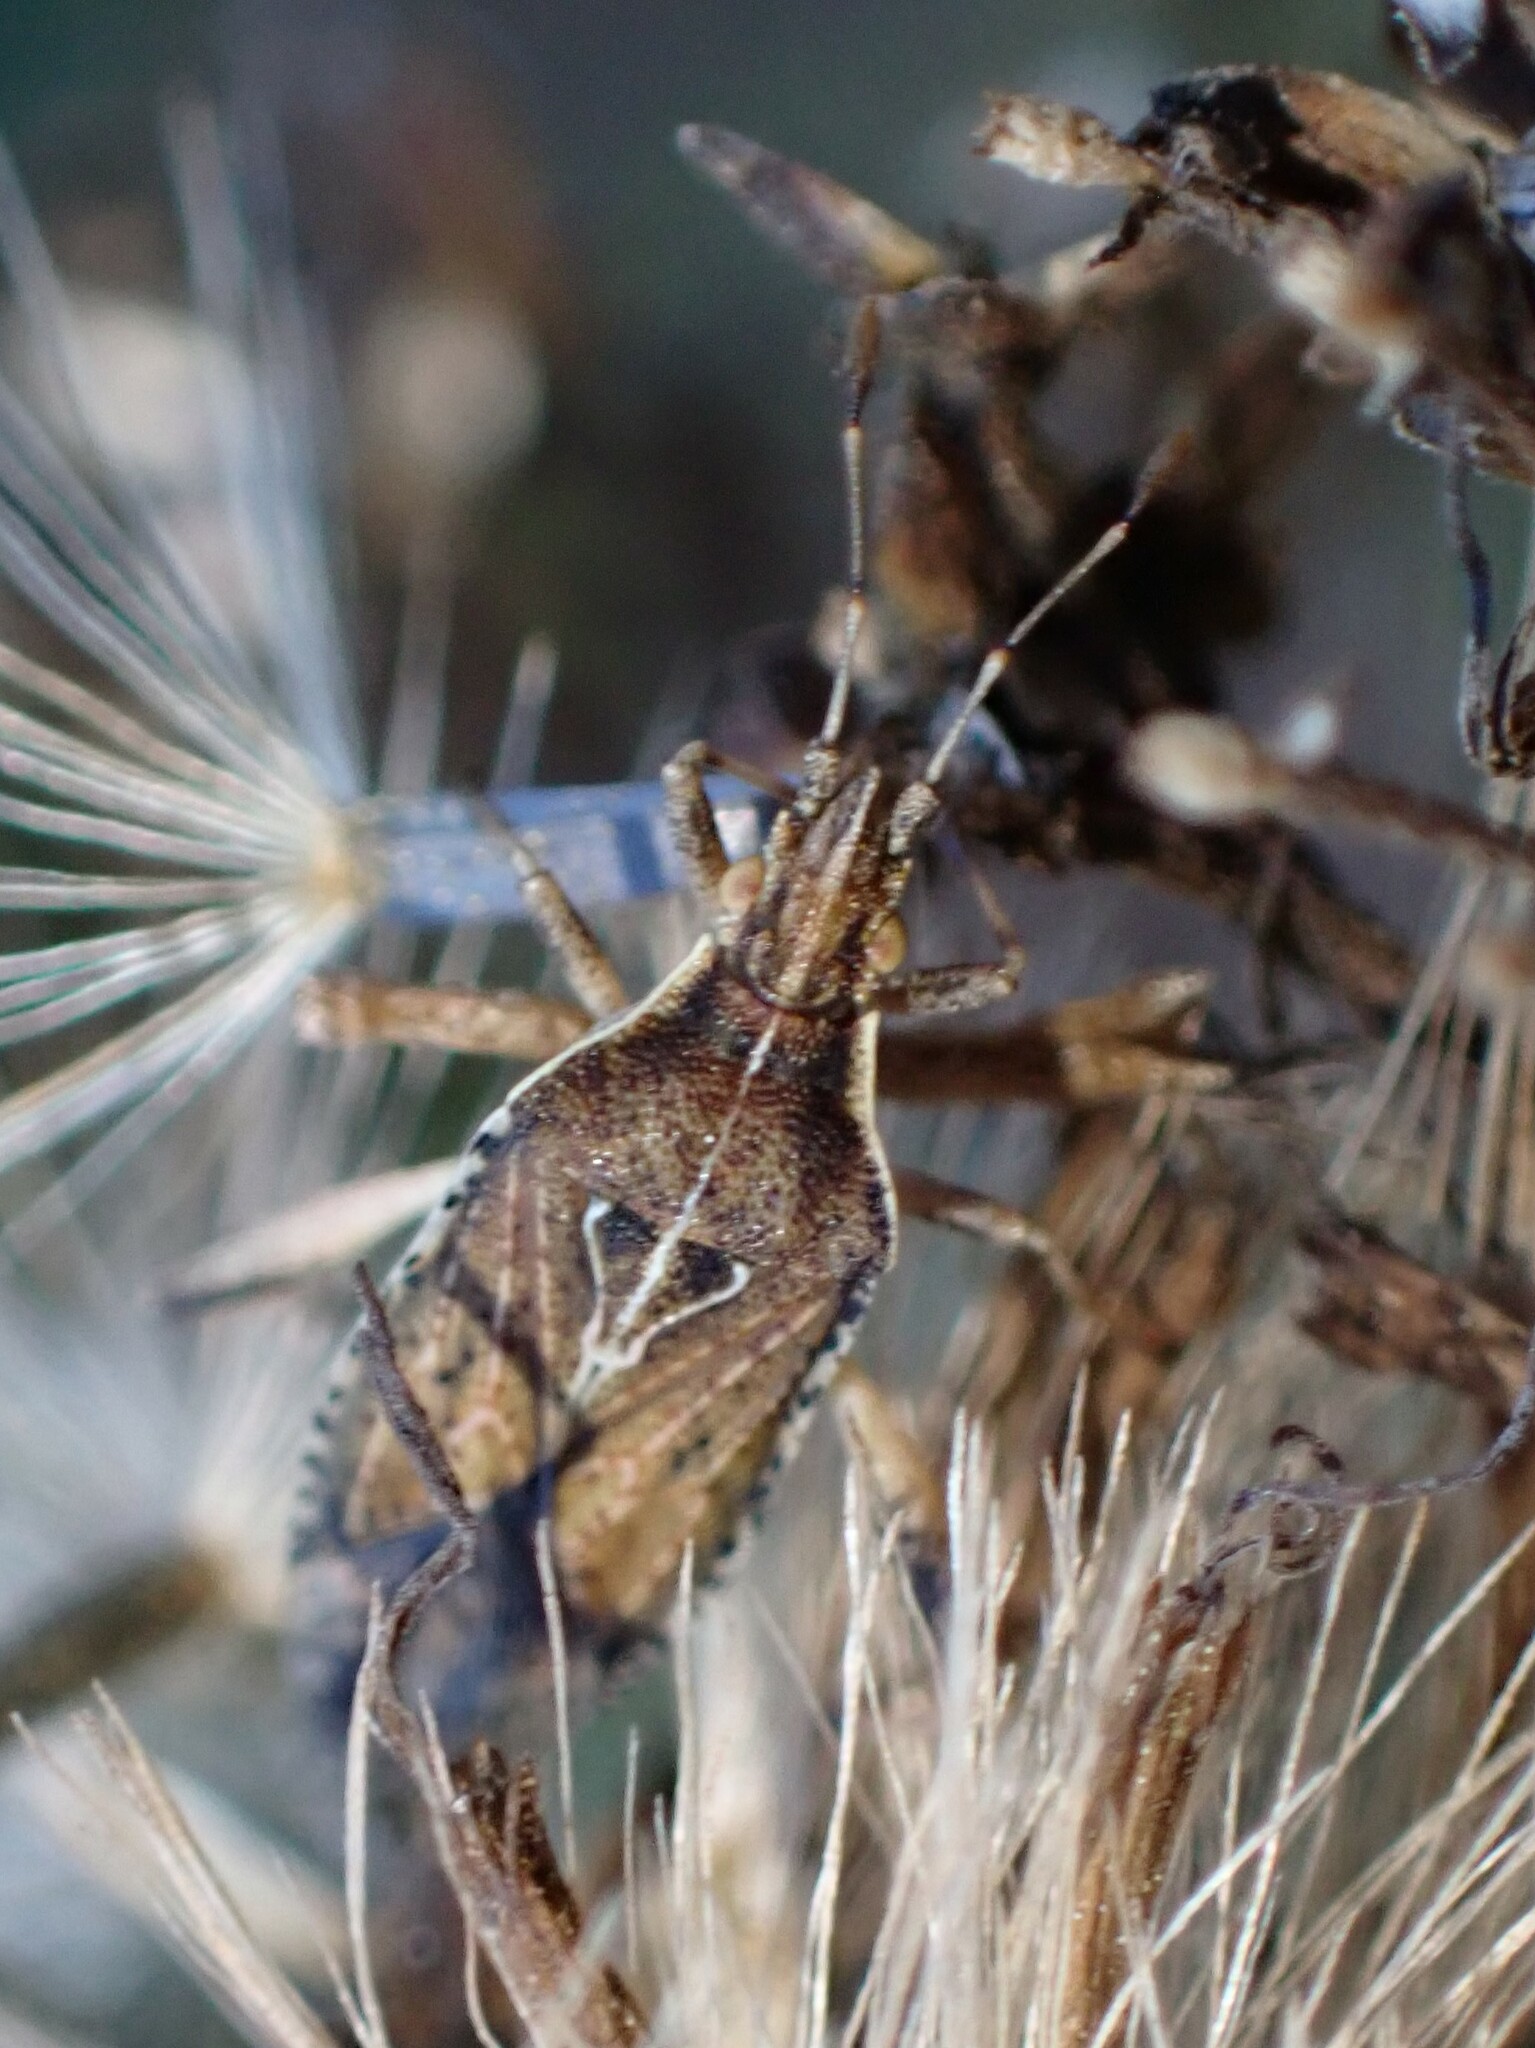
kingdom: Animalia
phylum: Arthropoda
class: Insecta
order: Hemiptera
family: Rhopalidae
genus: Harmostes
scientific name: Harmostes fraterculus
